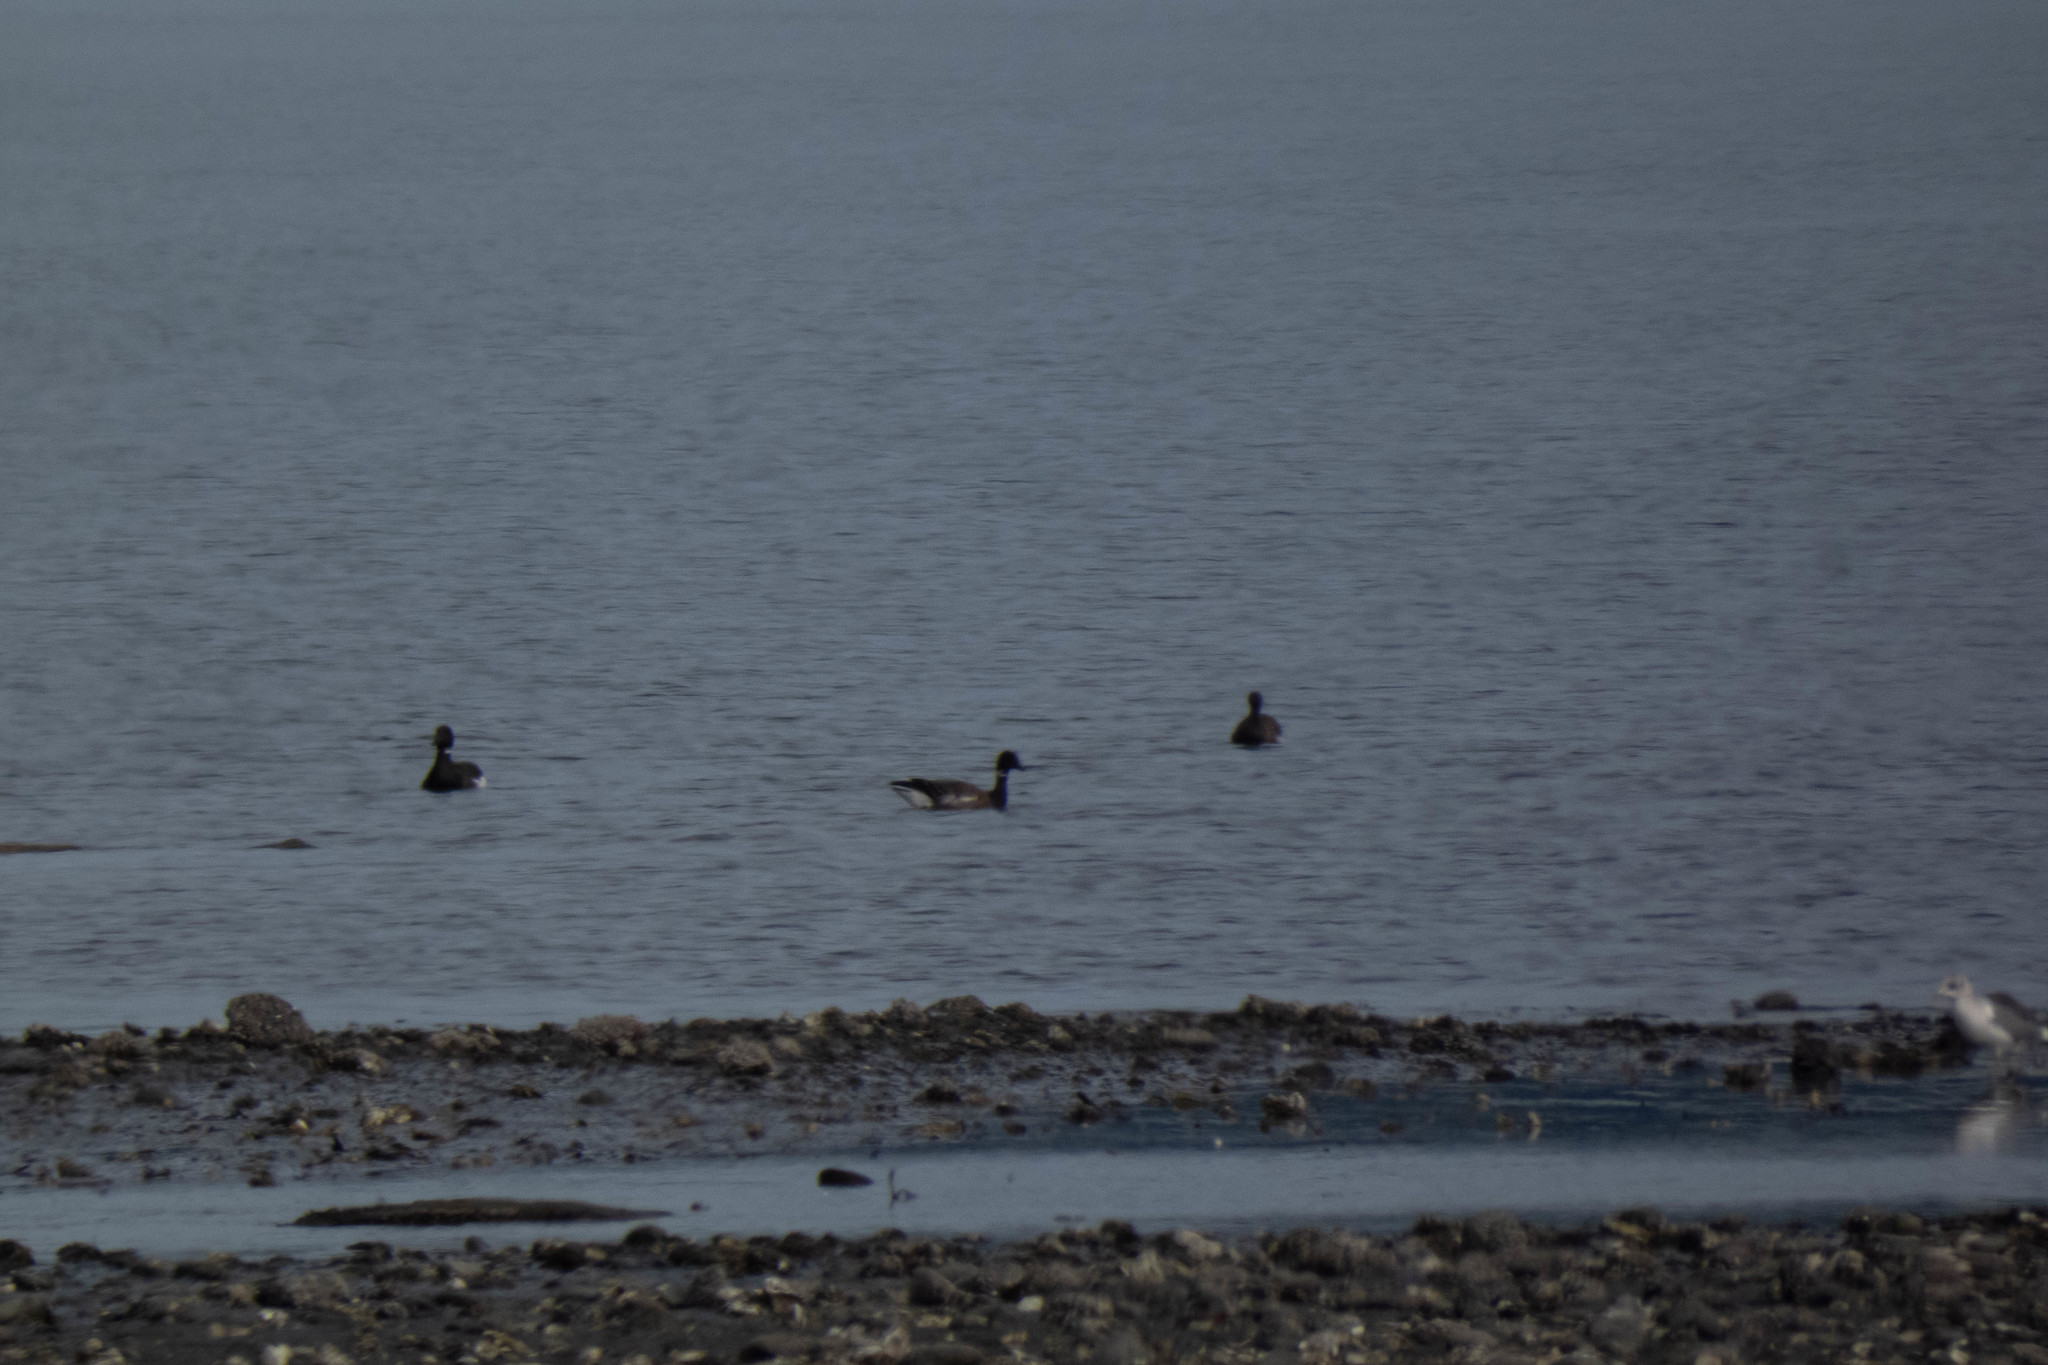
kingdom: Animalia
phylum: Chordata
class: Aves
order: Anseriformes
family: Anatidae
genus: Branta
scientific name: Branta bernicla
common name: Brant goose
